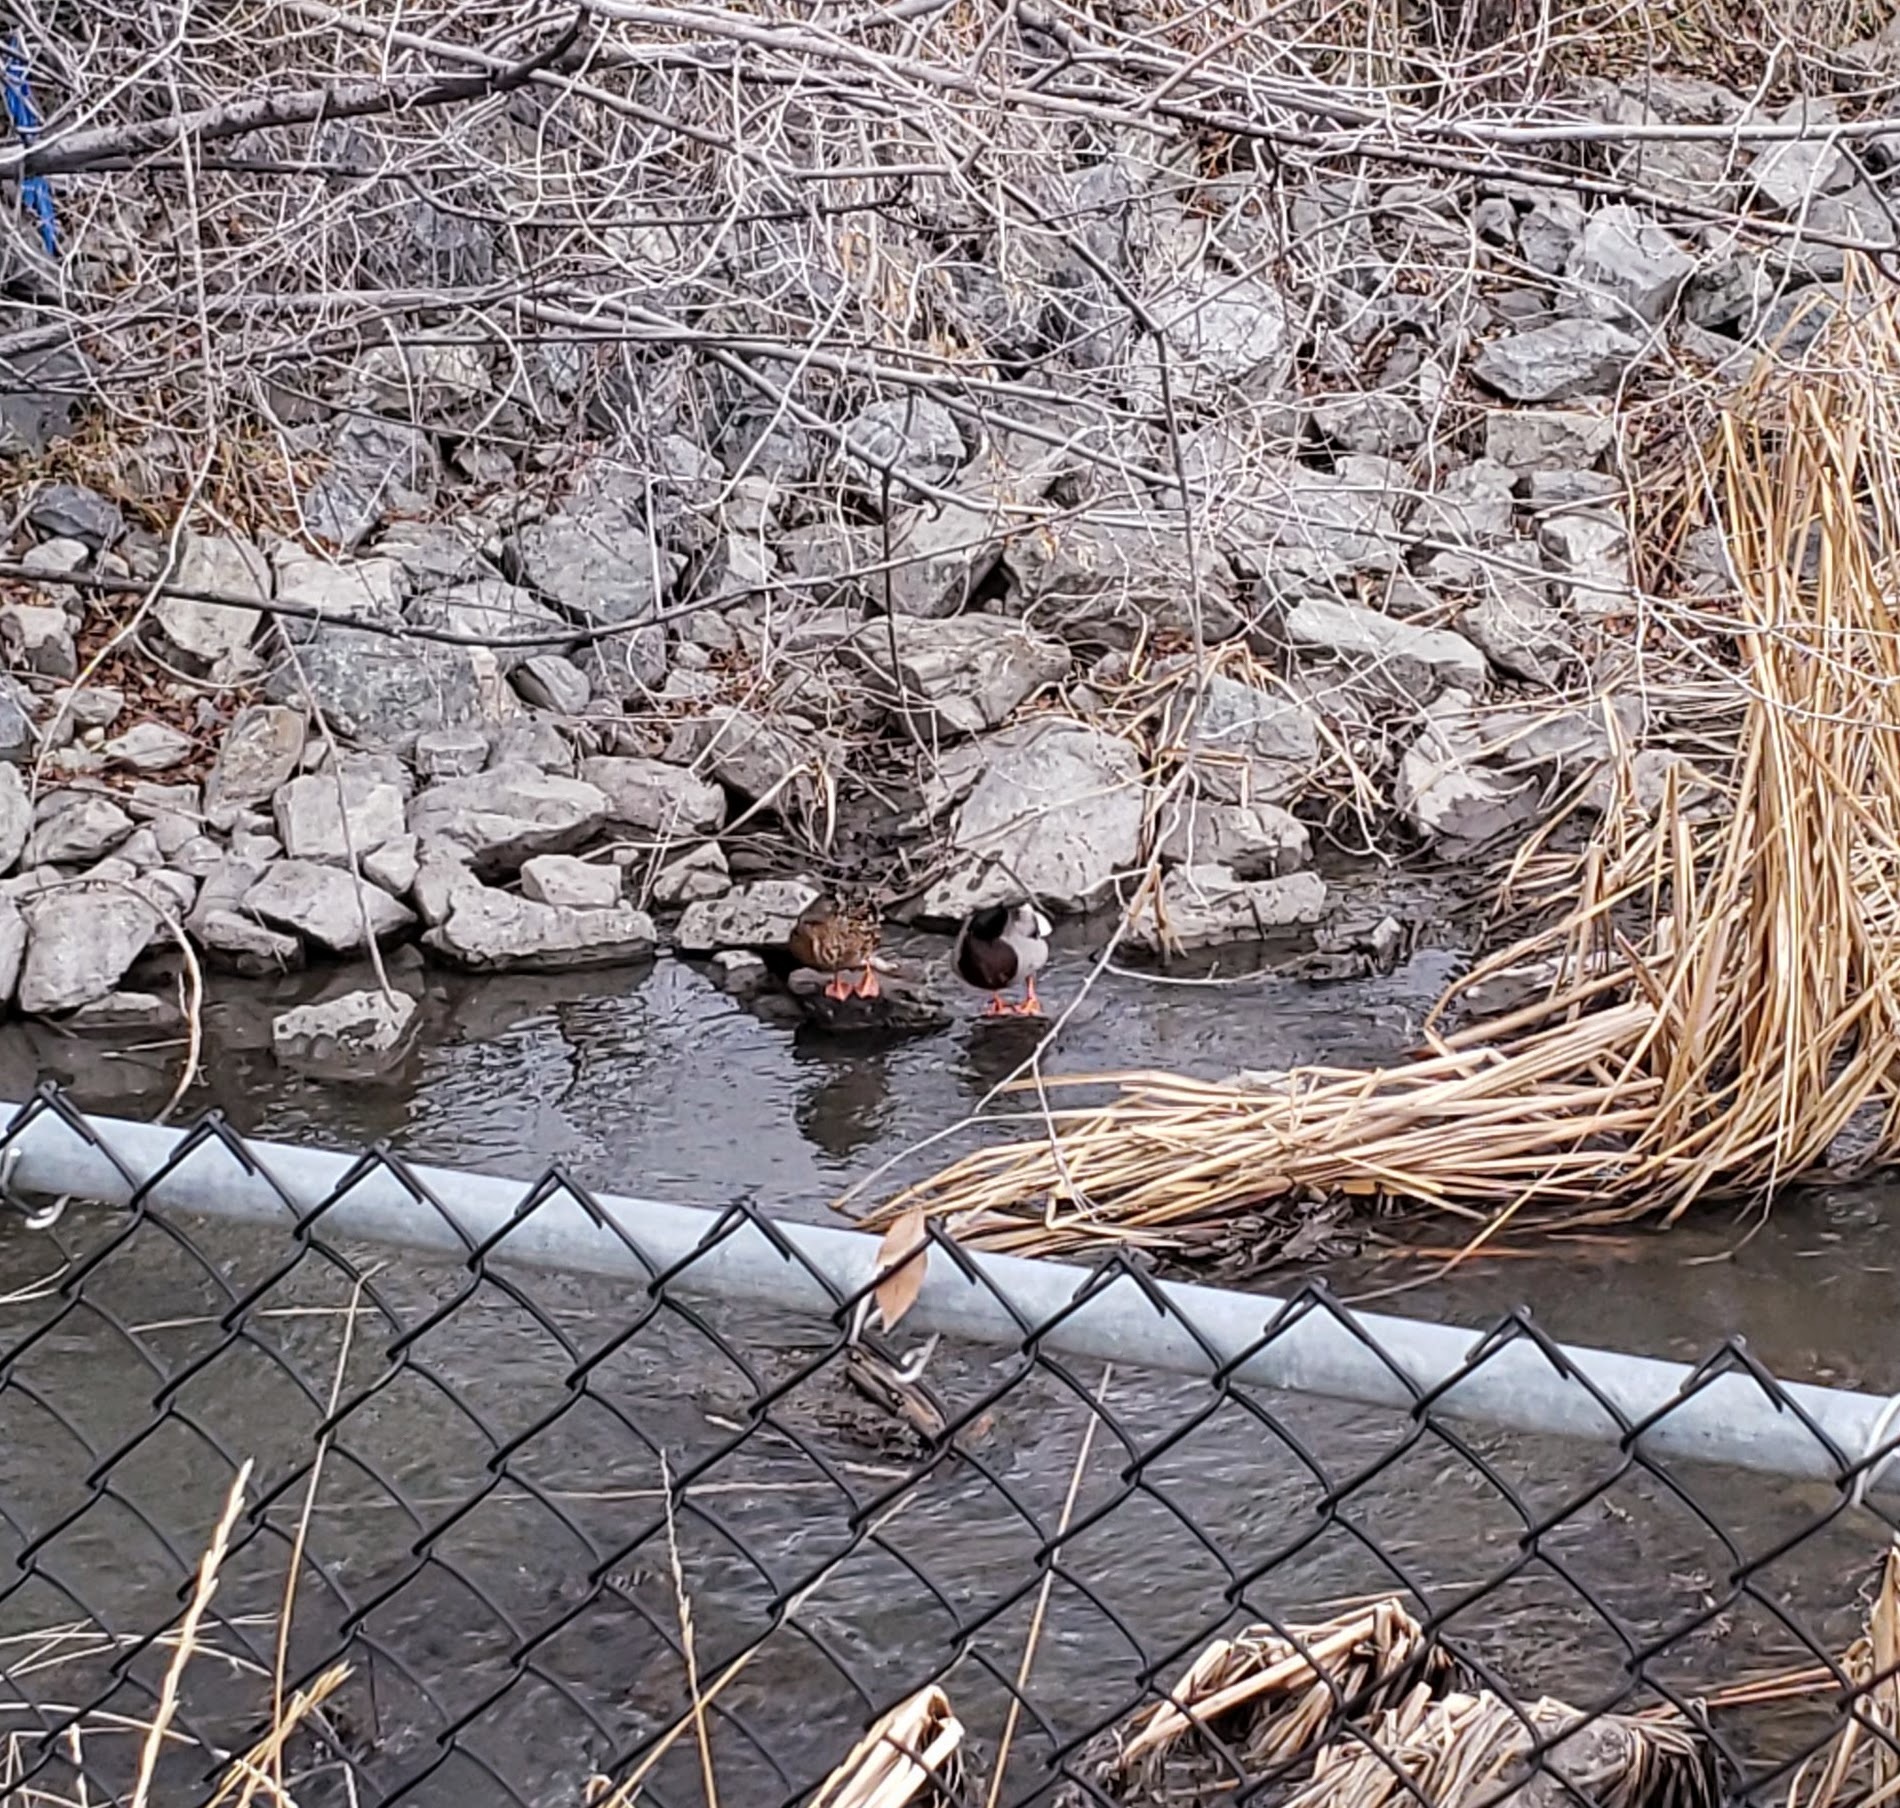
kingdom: Animalia
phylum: Chordata
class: Aves
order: Anseriformes
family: Anatidae
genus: Anas
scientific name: Anas platyrhynchos
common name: Mallard
